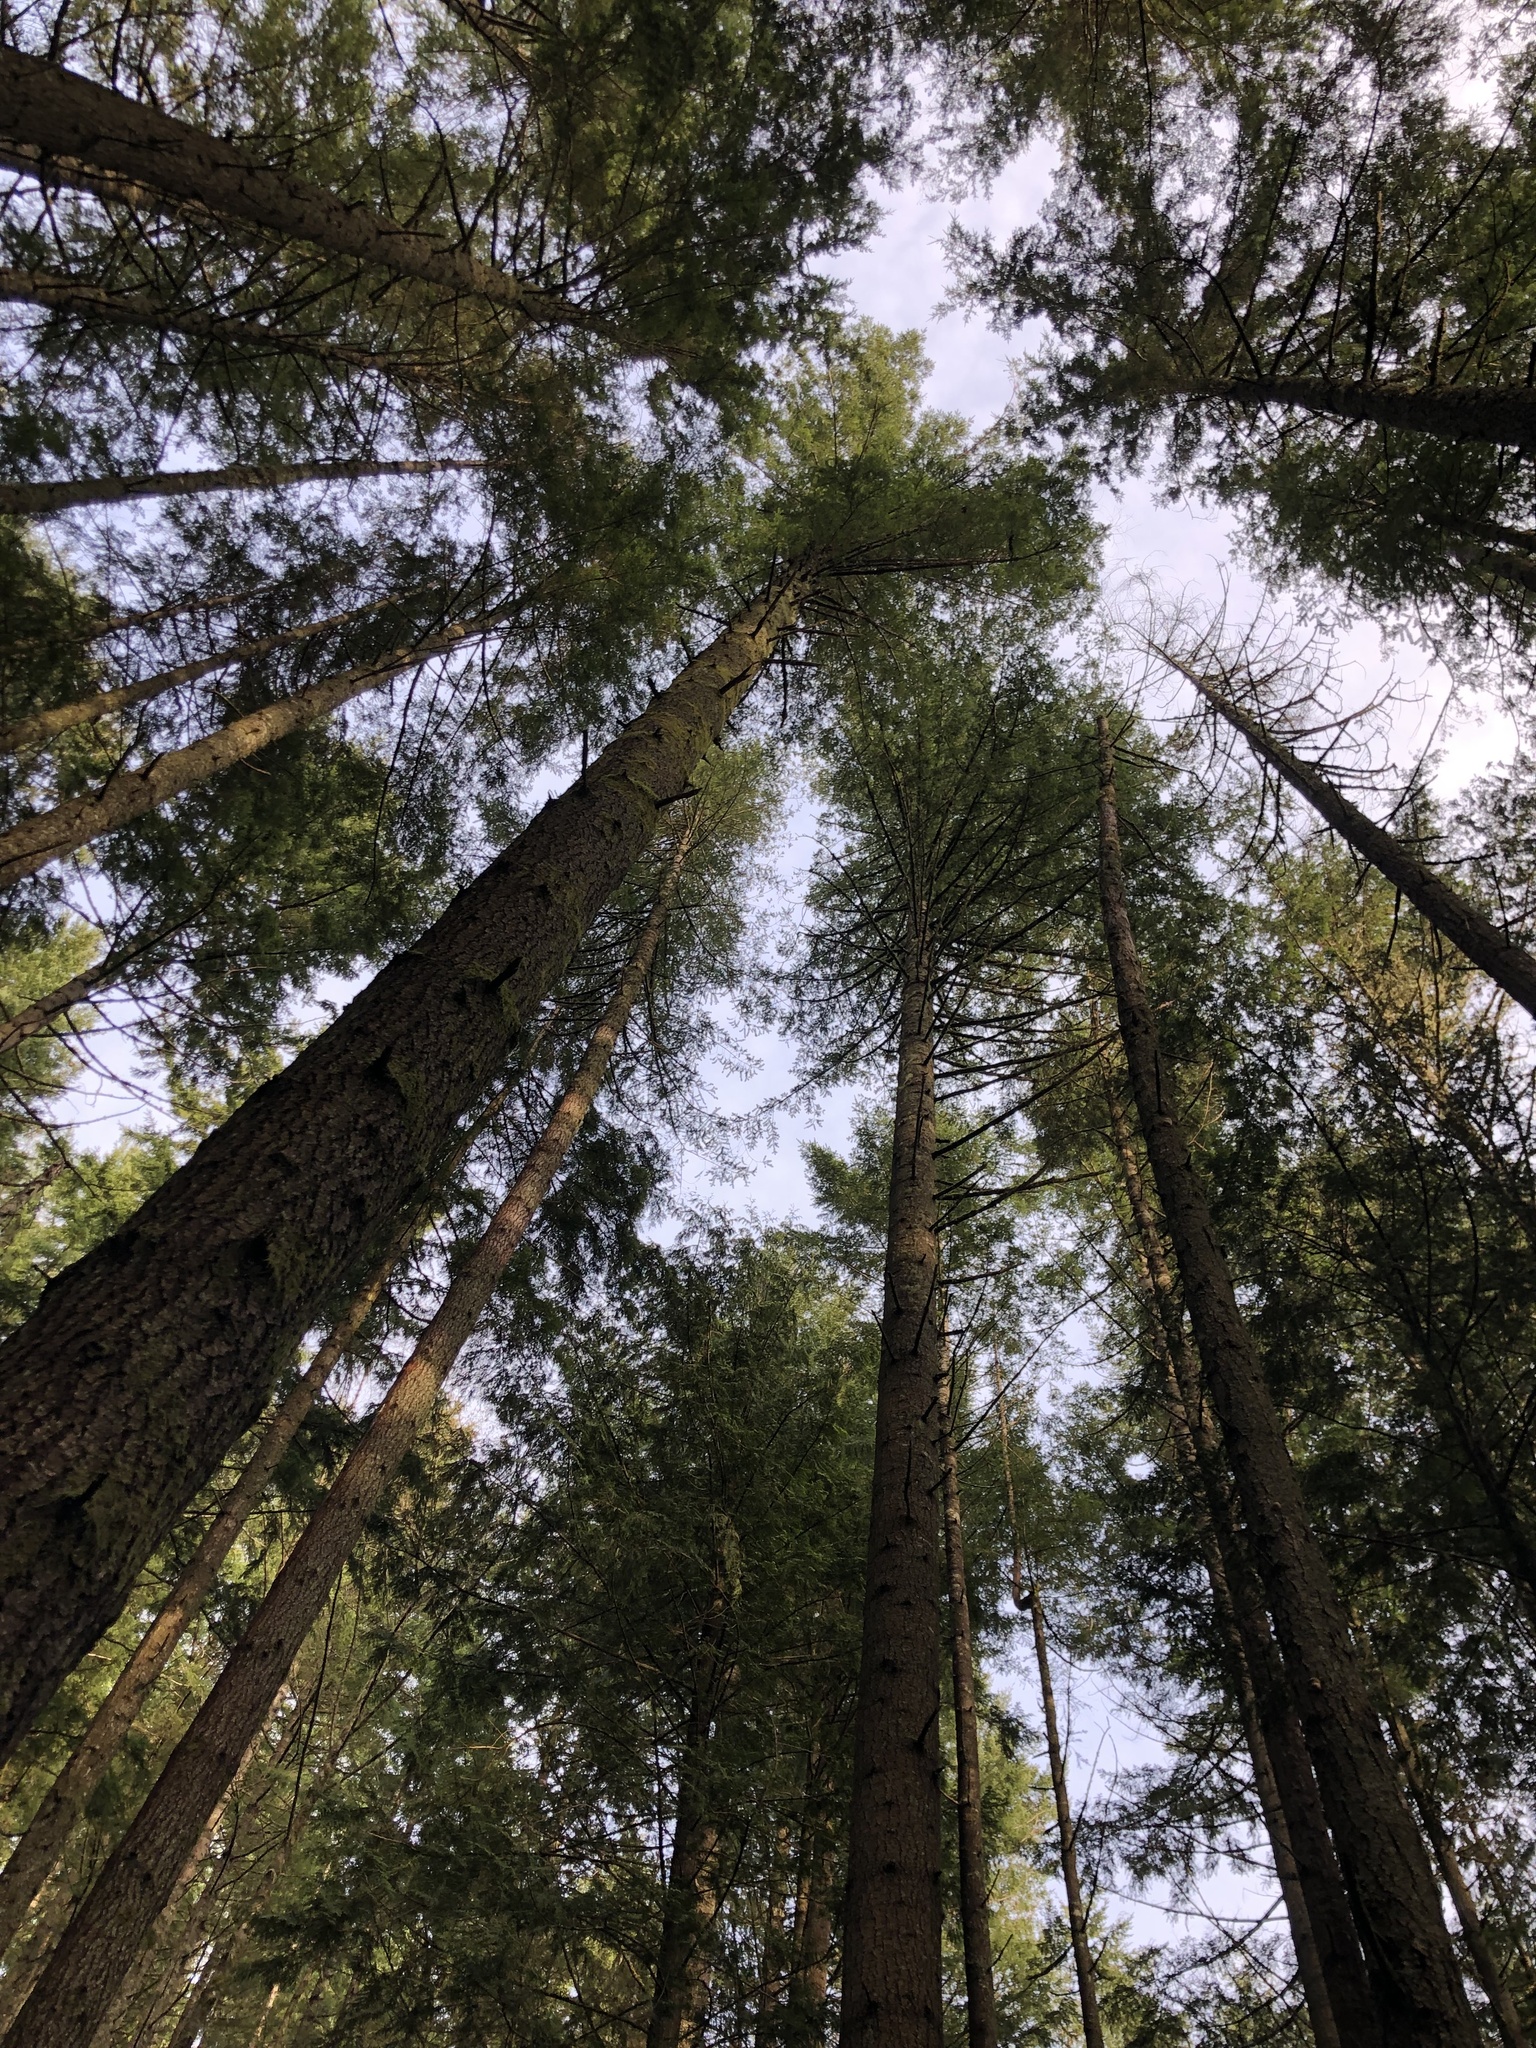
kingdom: Plantae
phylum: Tracheophyta
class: Pinopsida
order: Pinales
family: Pinaceae
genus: Pseudotsuga
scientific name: Pseudotsuga menziesii
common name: Douglas fir
